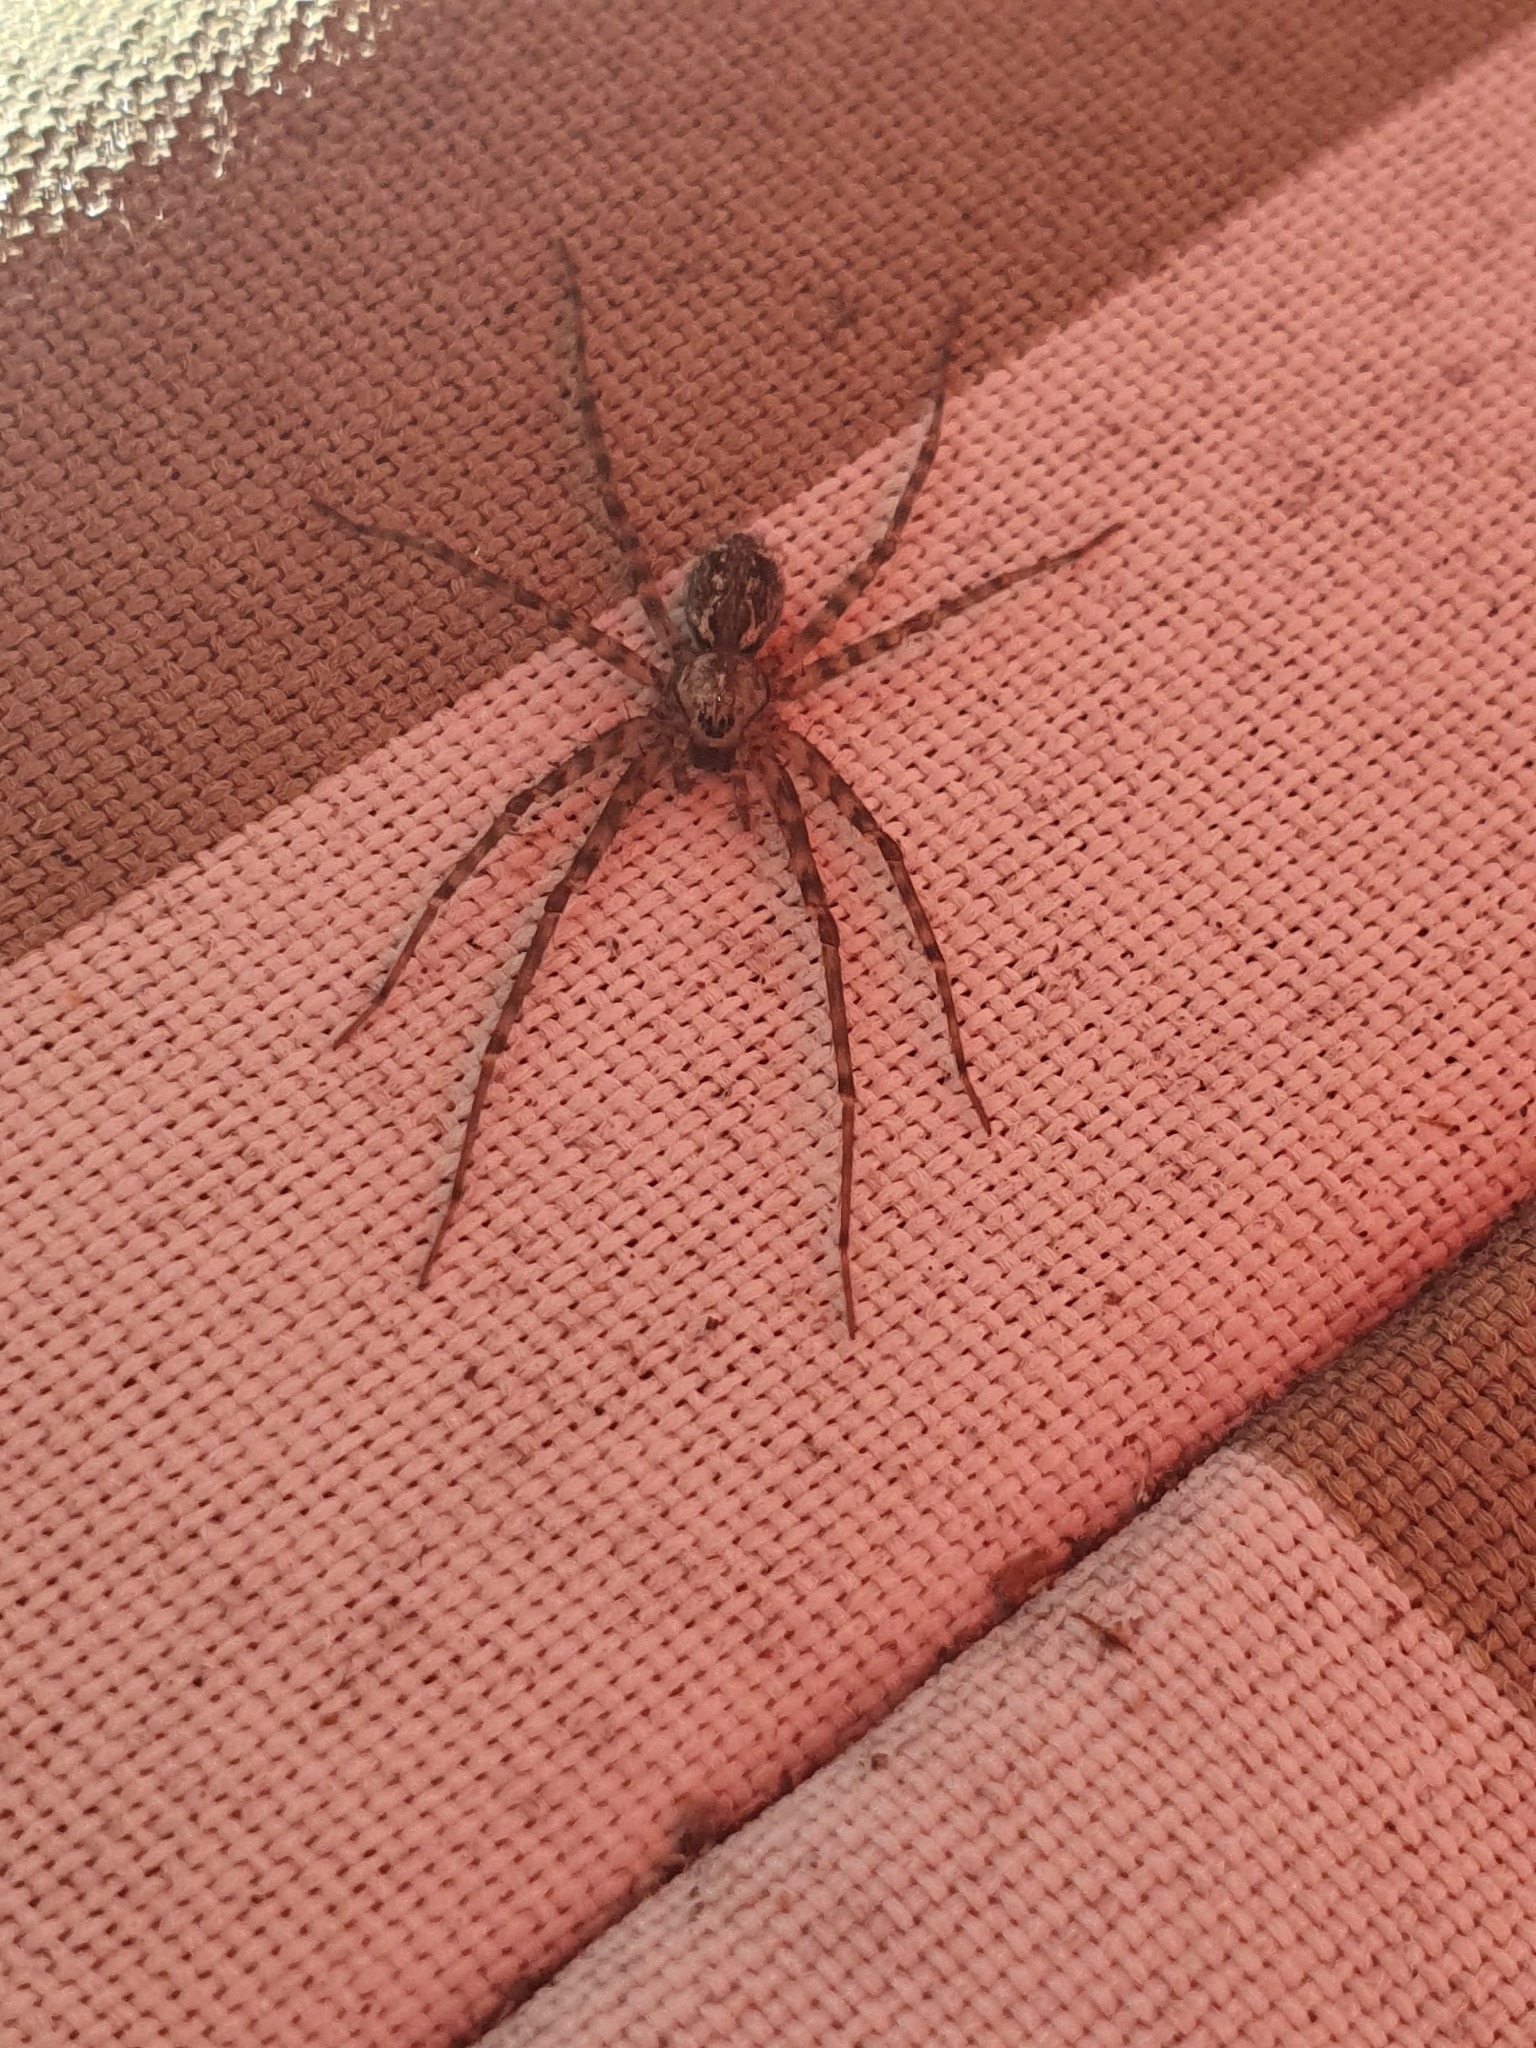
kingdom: Animalia
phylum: Arthropoda
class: Arachnida
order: Araneae
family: Stiphidiidae
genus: Stiphidion
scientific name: Stiphidion facetum
